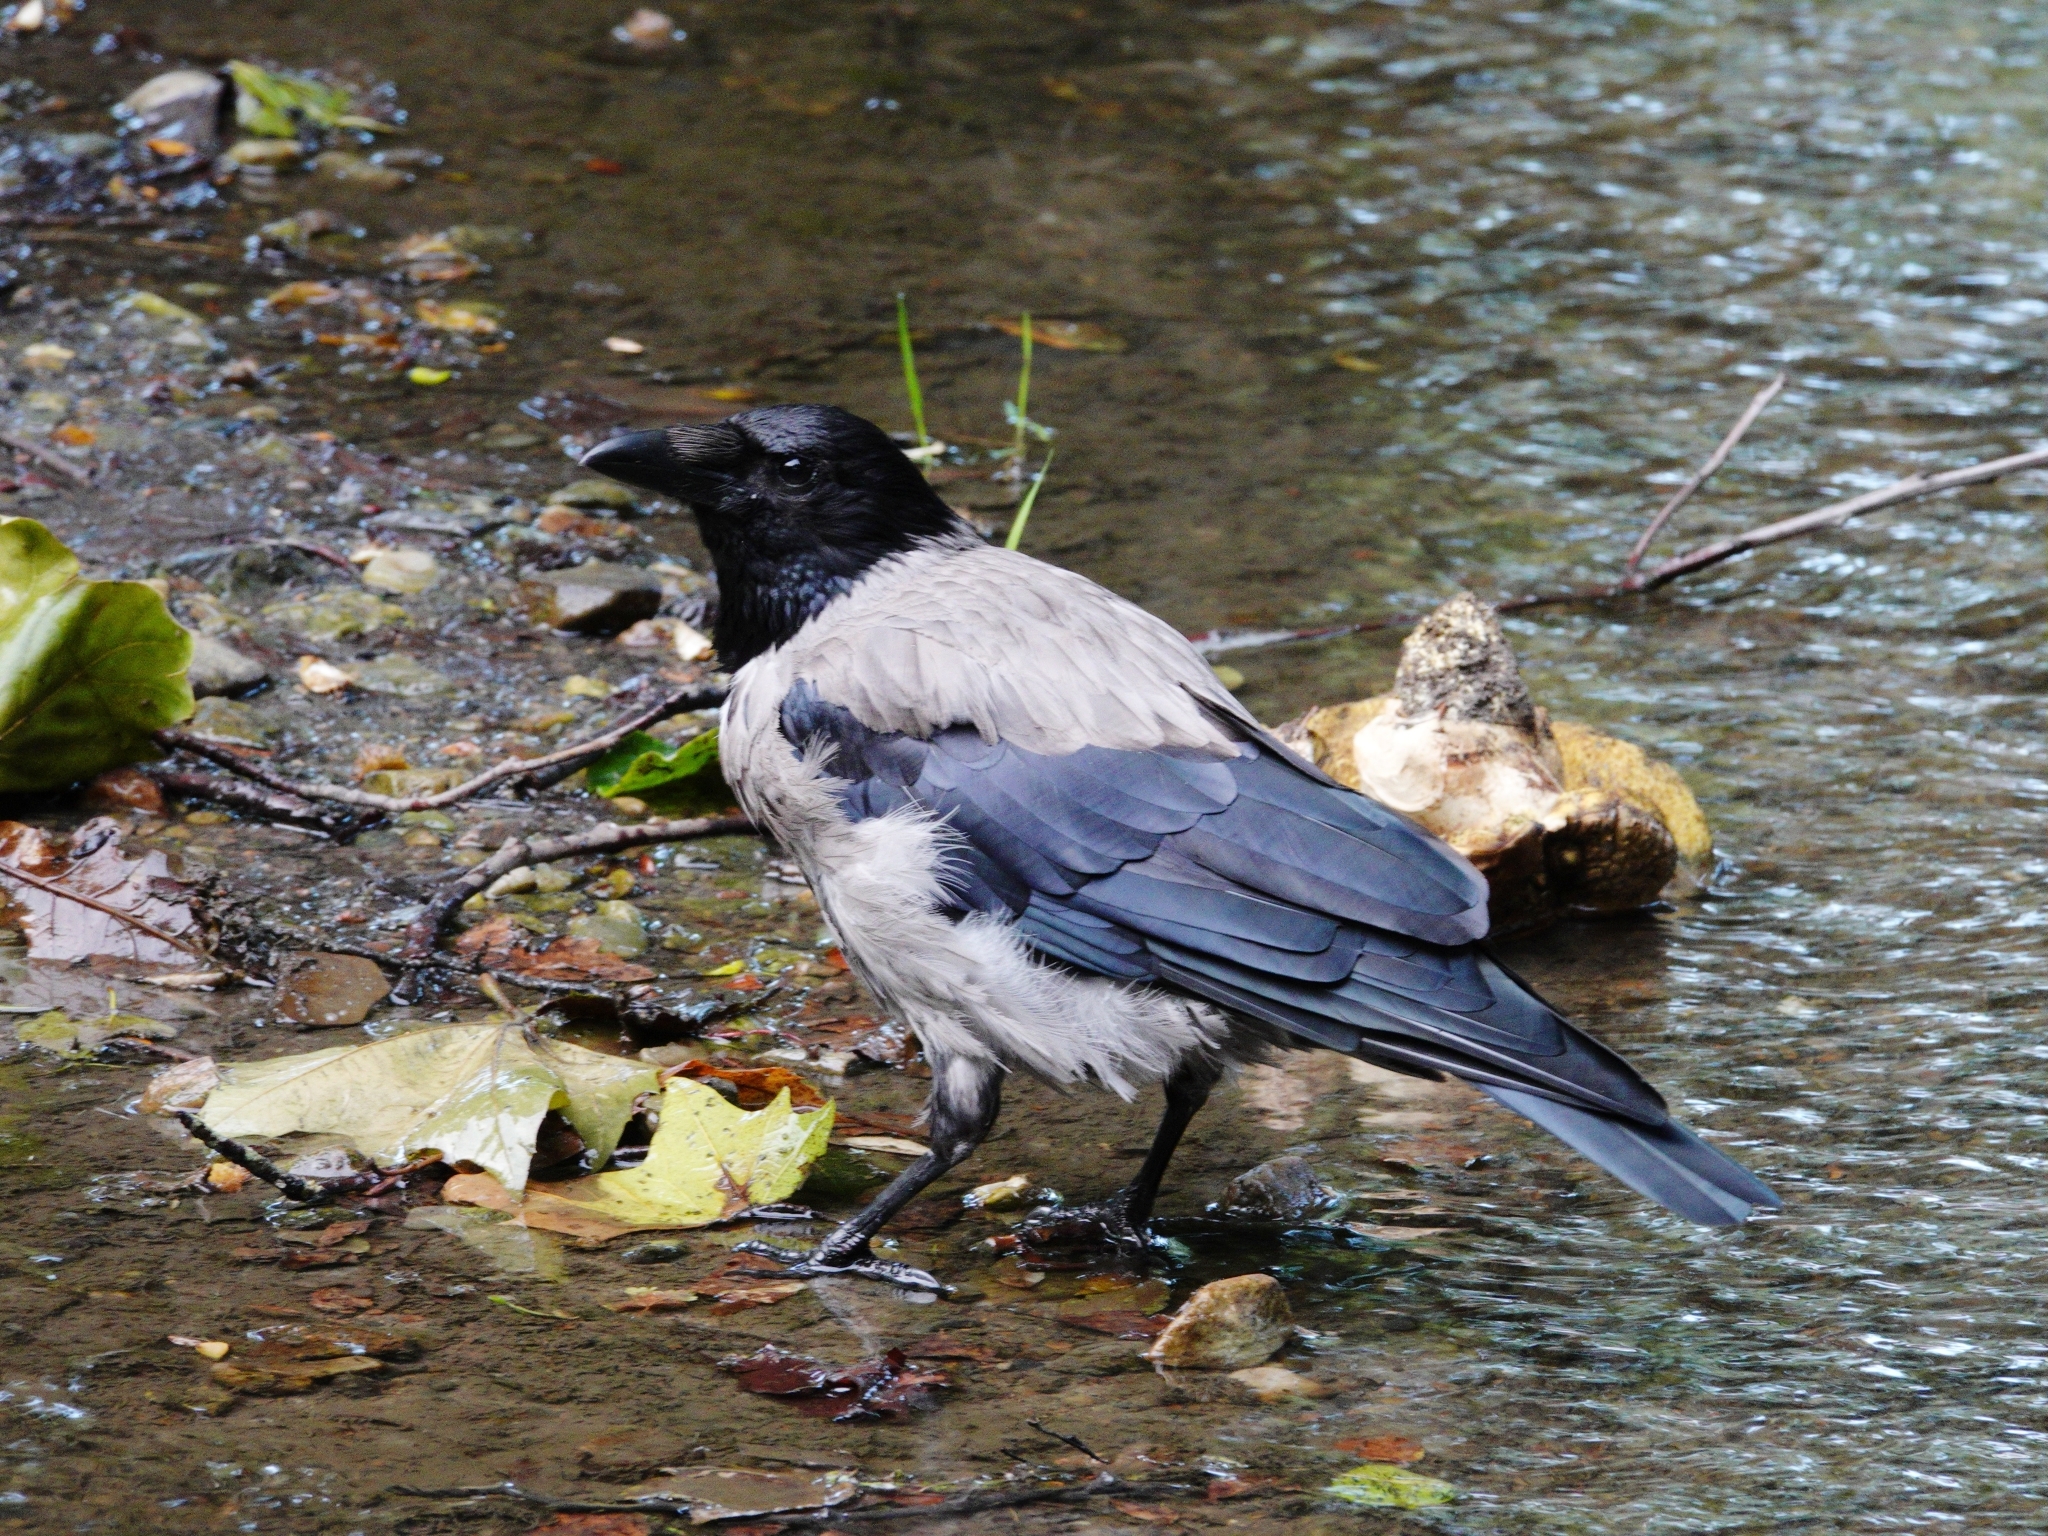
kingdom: Animalia
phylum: Chordata
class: Aves
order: Passeriformes
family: Corvidae
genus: Corvus
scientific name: Corvus cornix
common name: Hooded crow
